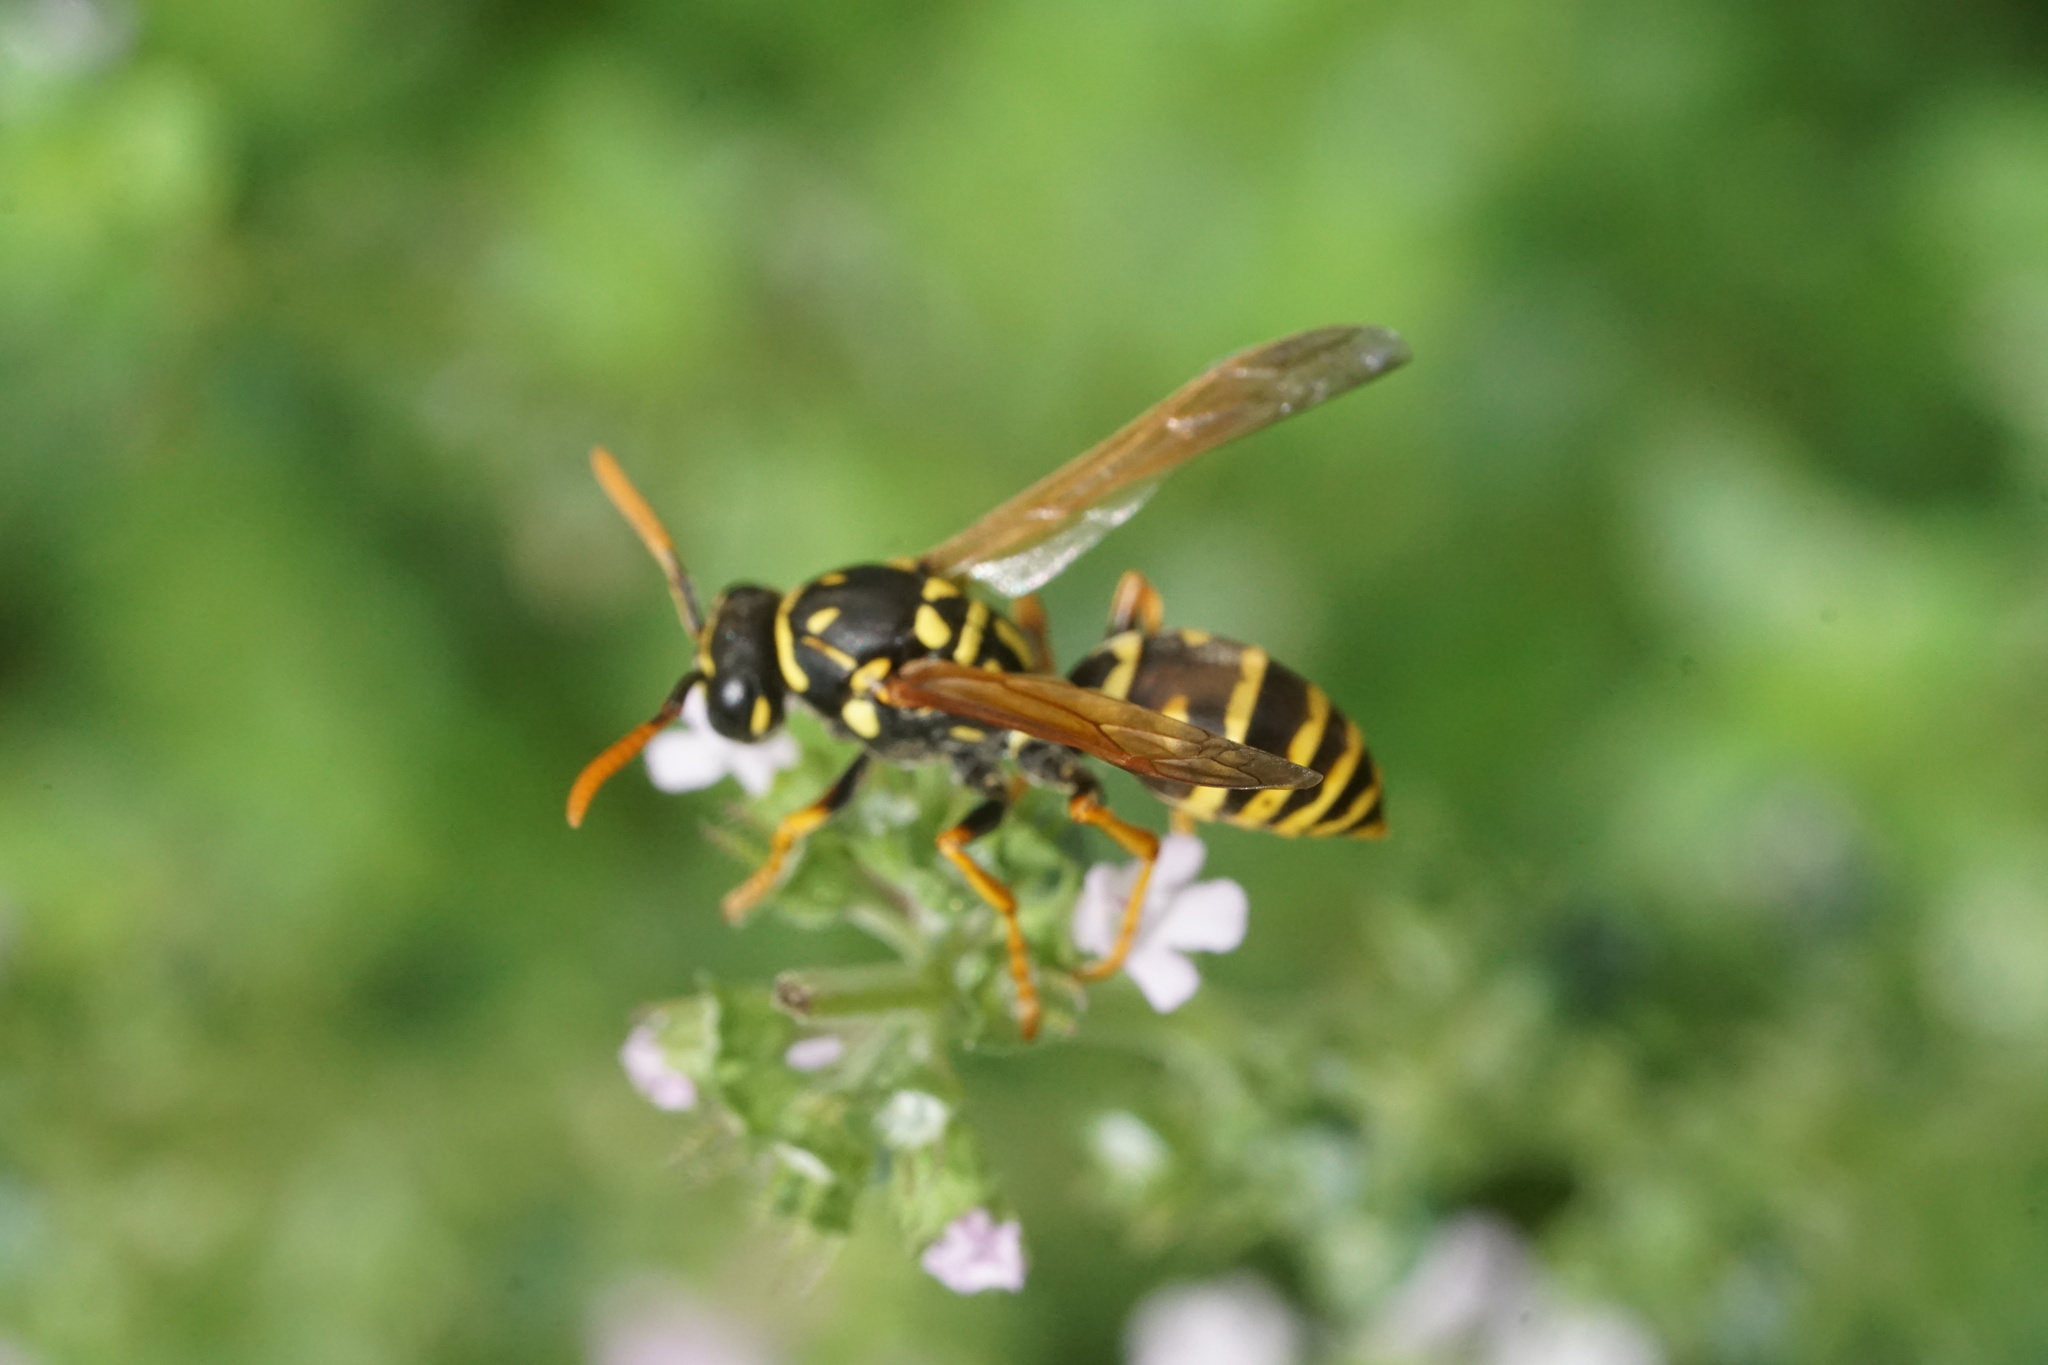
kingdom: Animalia
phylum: Arthropoda
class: Insecta
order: Hymenoptera
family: Eumenidae
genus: Polistes
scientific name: Polistes dominula
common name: Paper wasp
